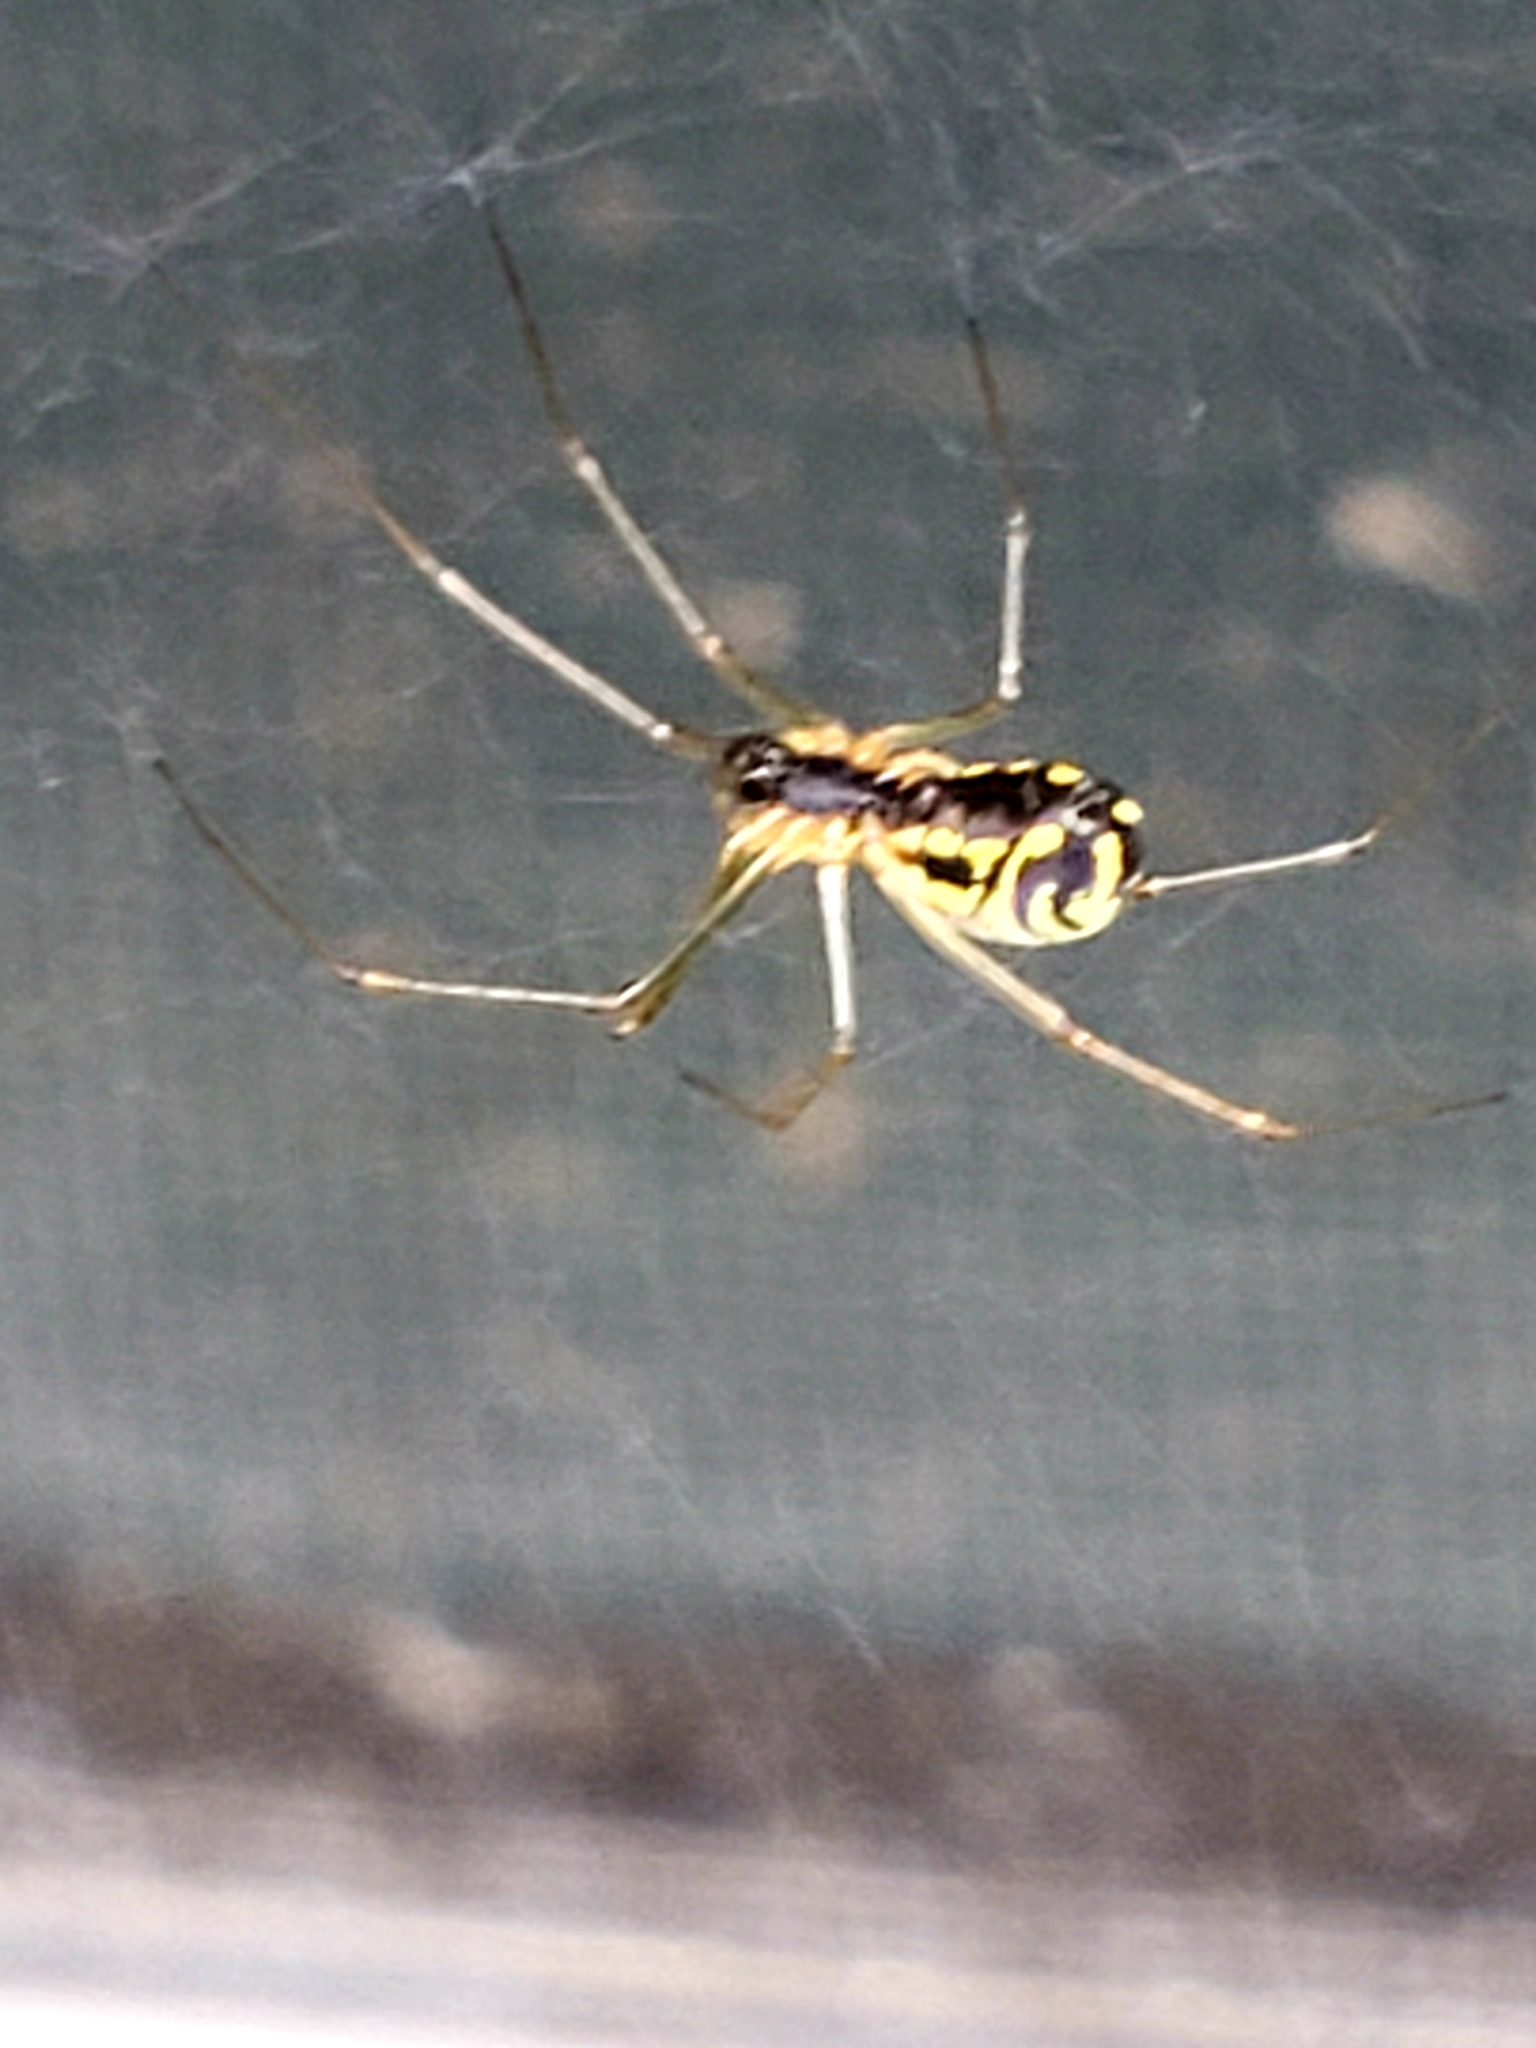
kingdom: Animalia
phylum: Arthropoda
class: Arachnida
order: Araneae
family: Linyphiidae
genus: Neriene
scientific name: Neriene radiata
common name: Filmy dome spider
